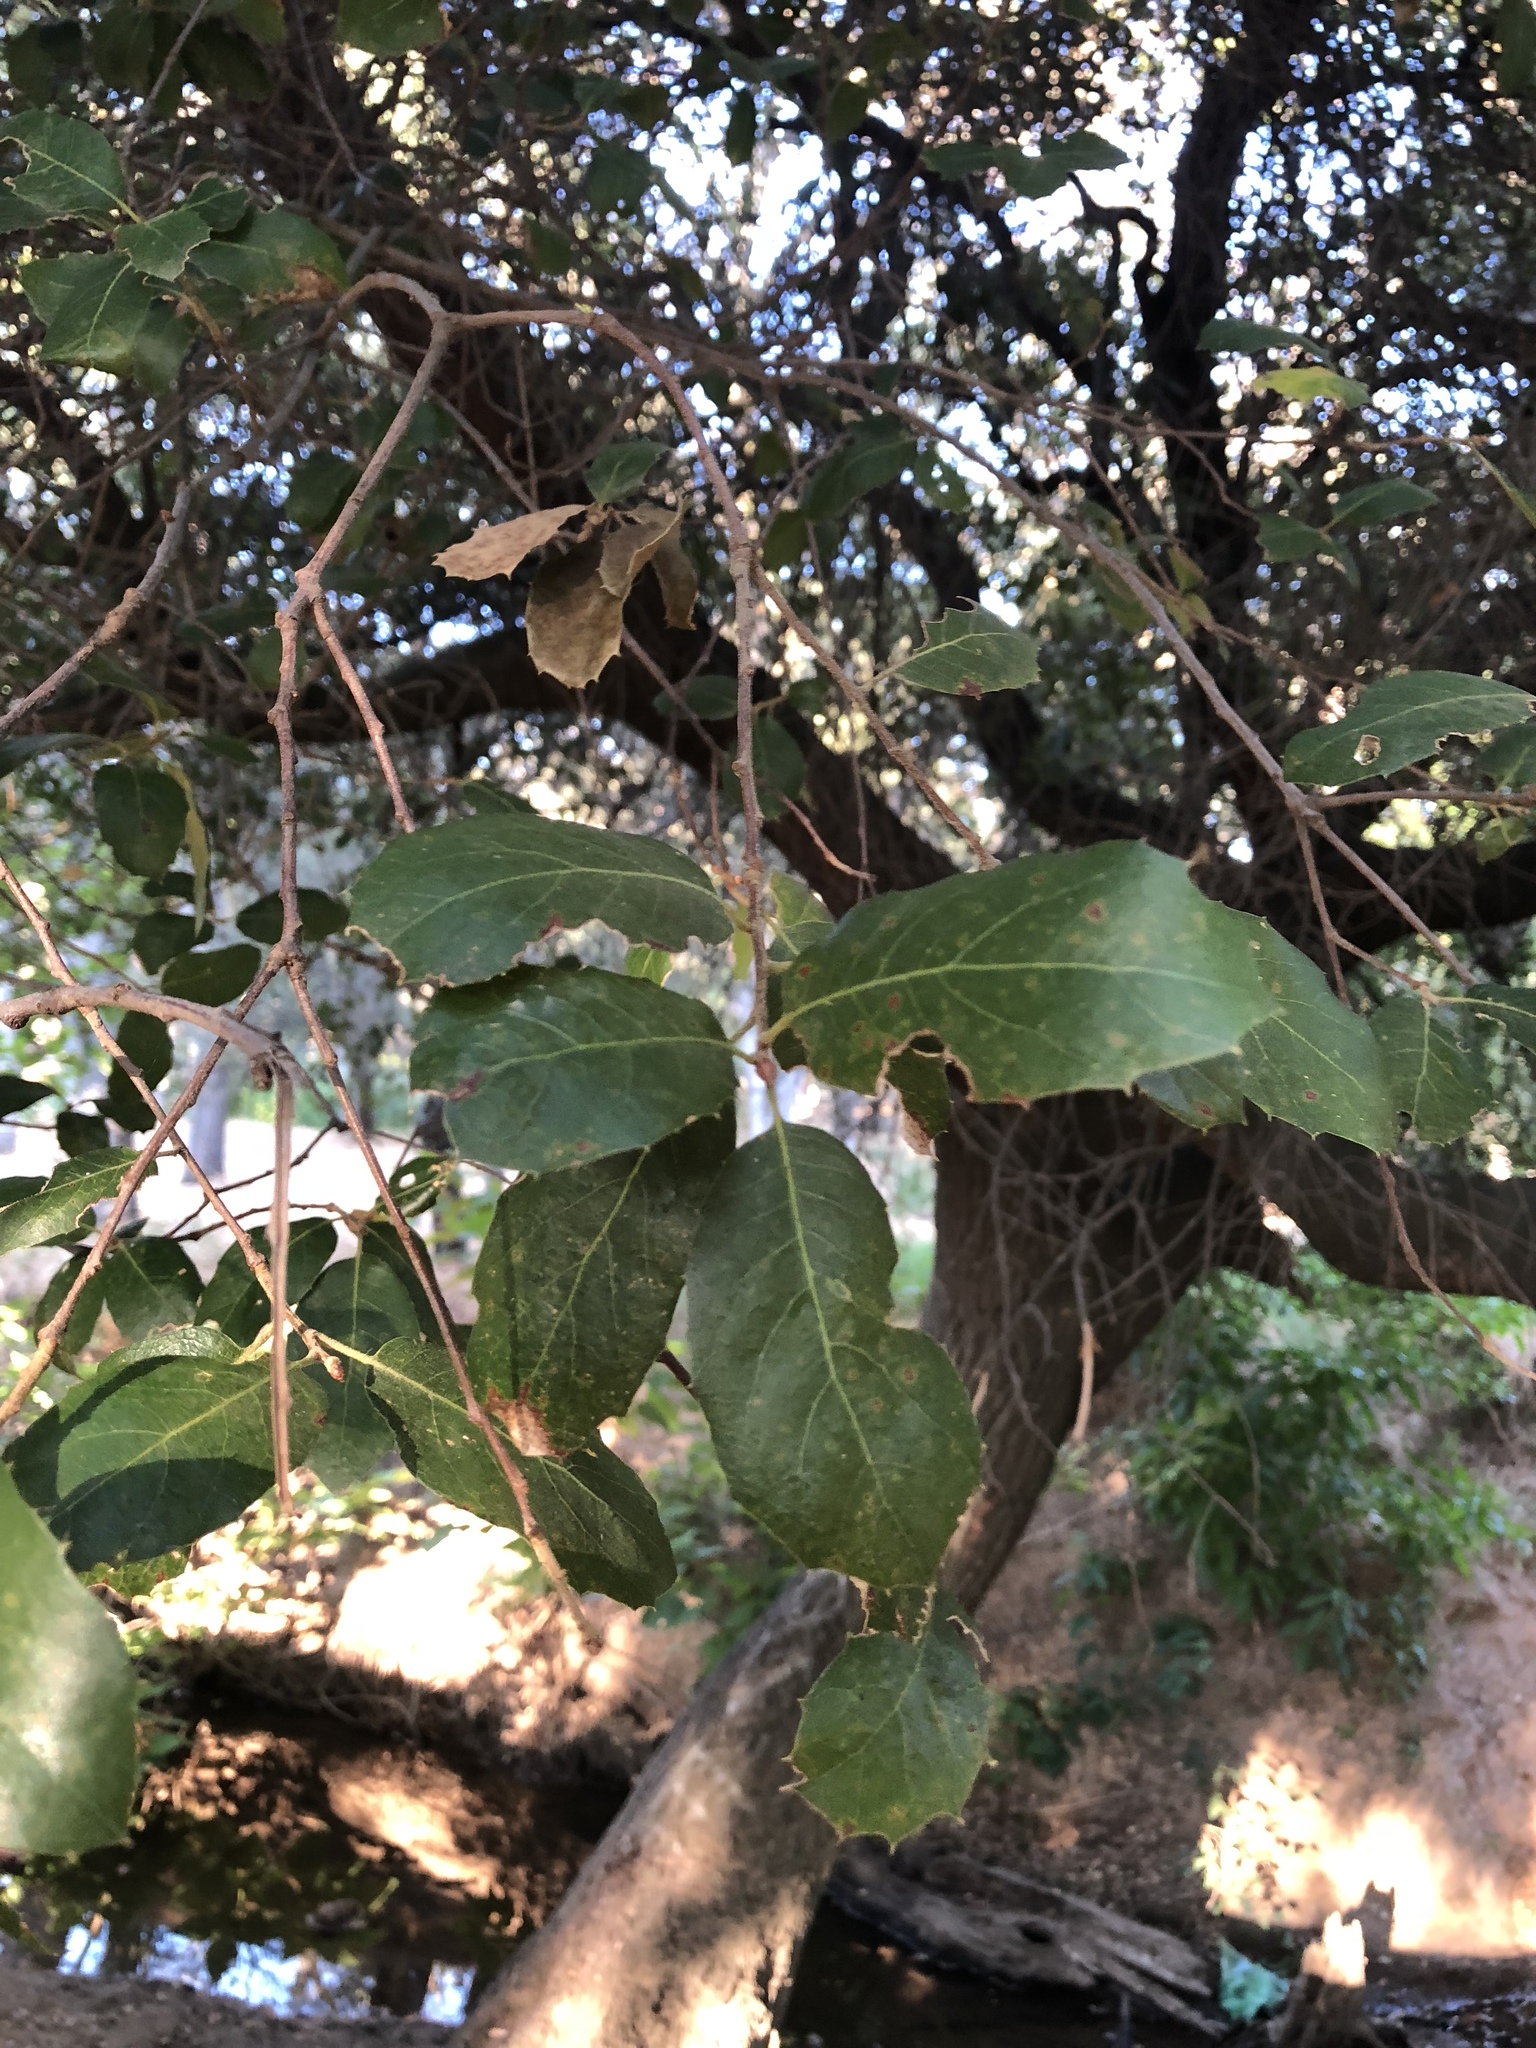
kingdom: Plantae
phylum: Tracheophyta
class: Magnoliopsida
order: Fagales
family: Fagaceae
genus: Quercus
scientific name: Quercus wislizeni
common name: Interior live oak
